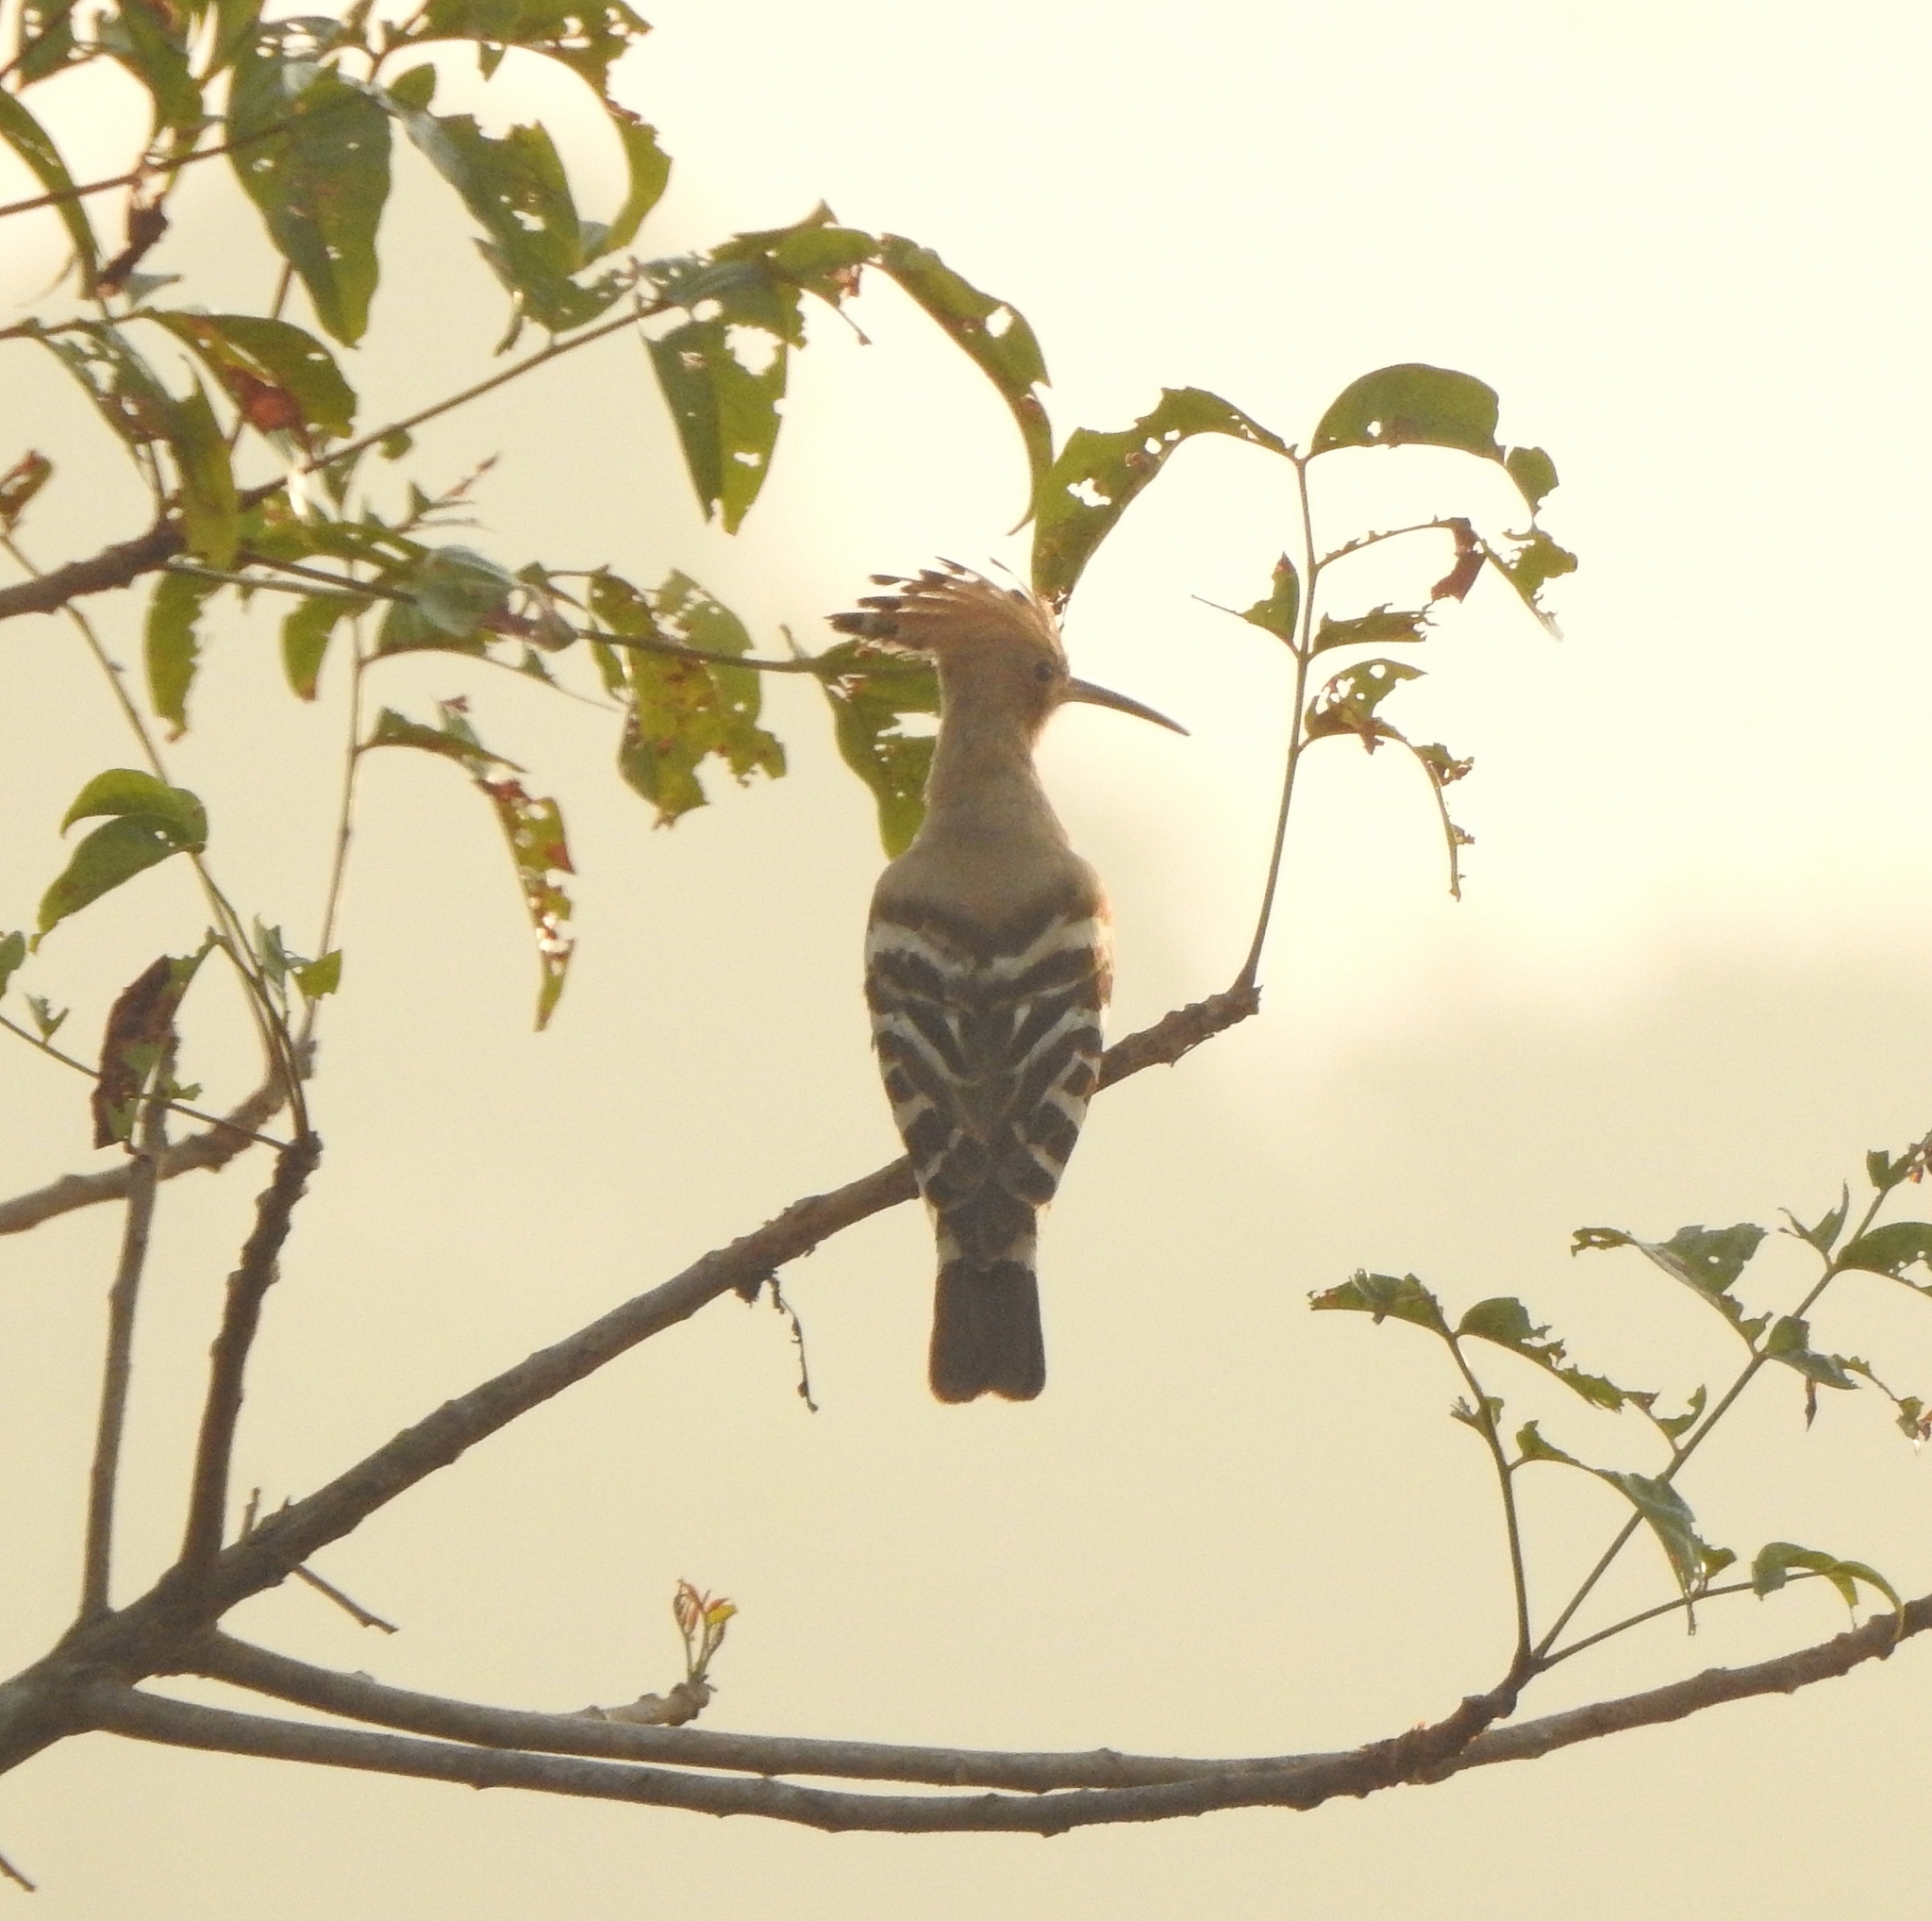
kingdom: Animalia
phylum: Chordata
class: Aves
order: Bucerotiformes
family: Upupidae
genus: Upupa
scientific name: Upupa epops
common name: Eurasian hoopoe
